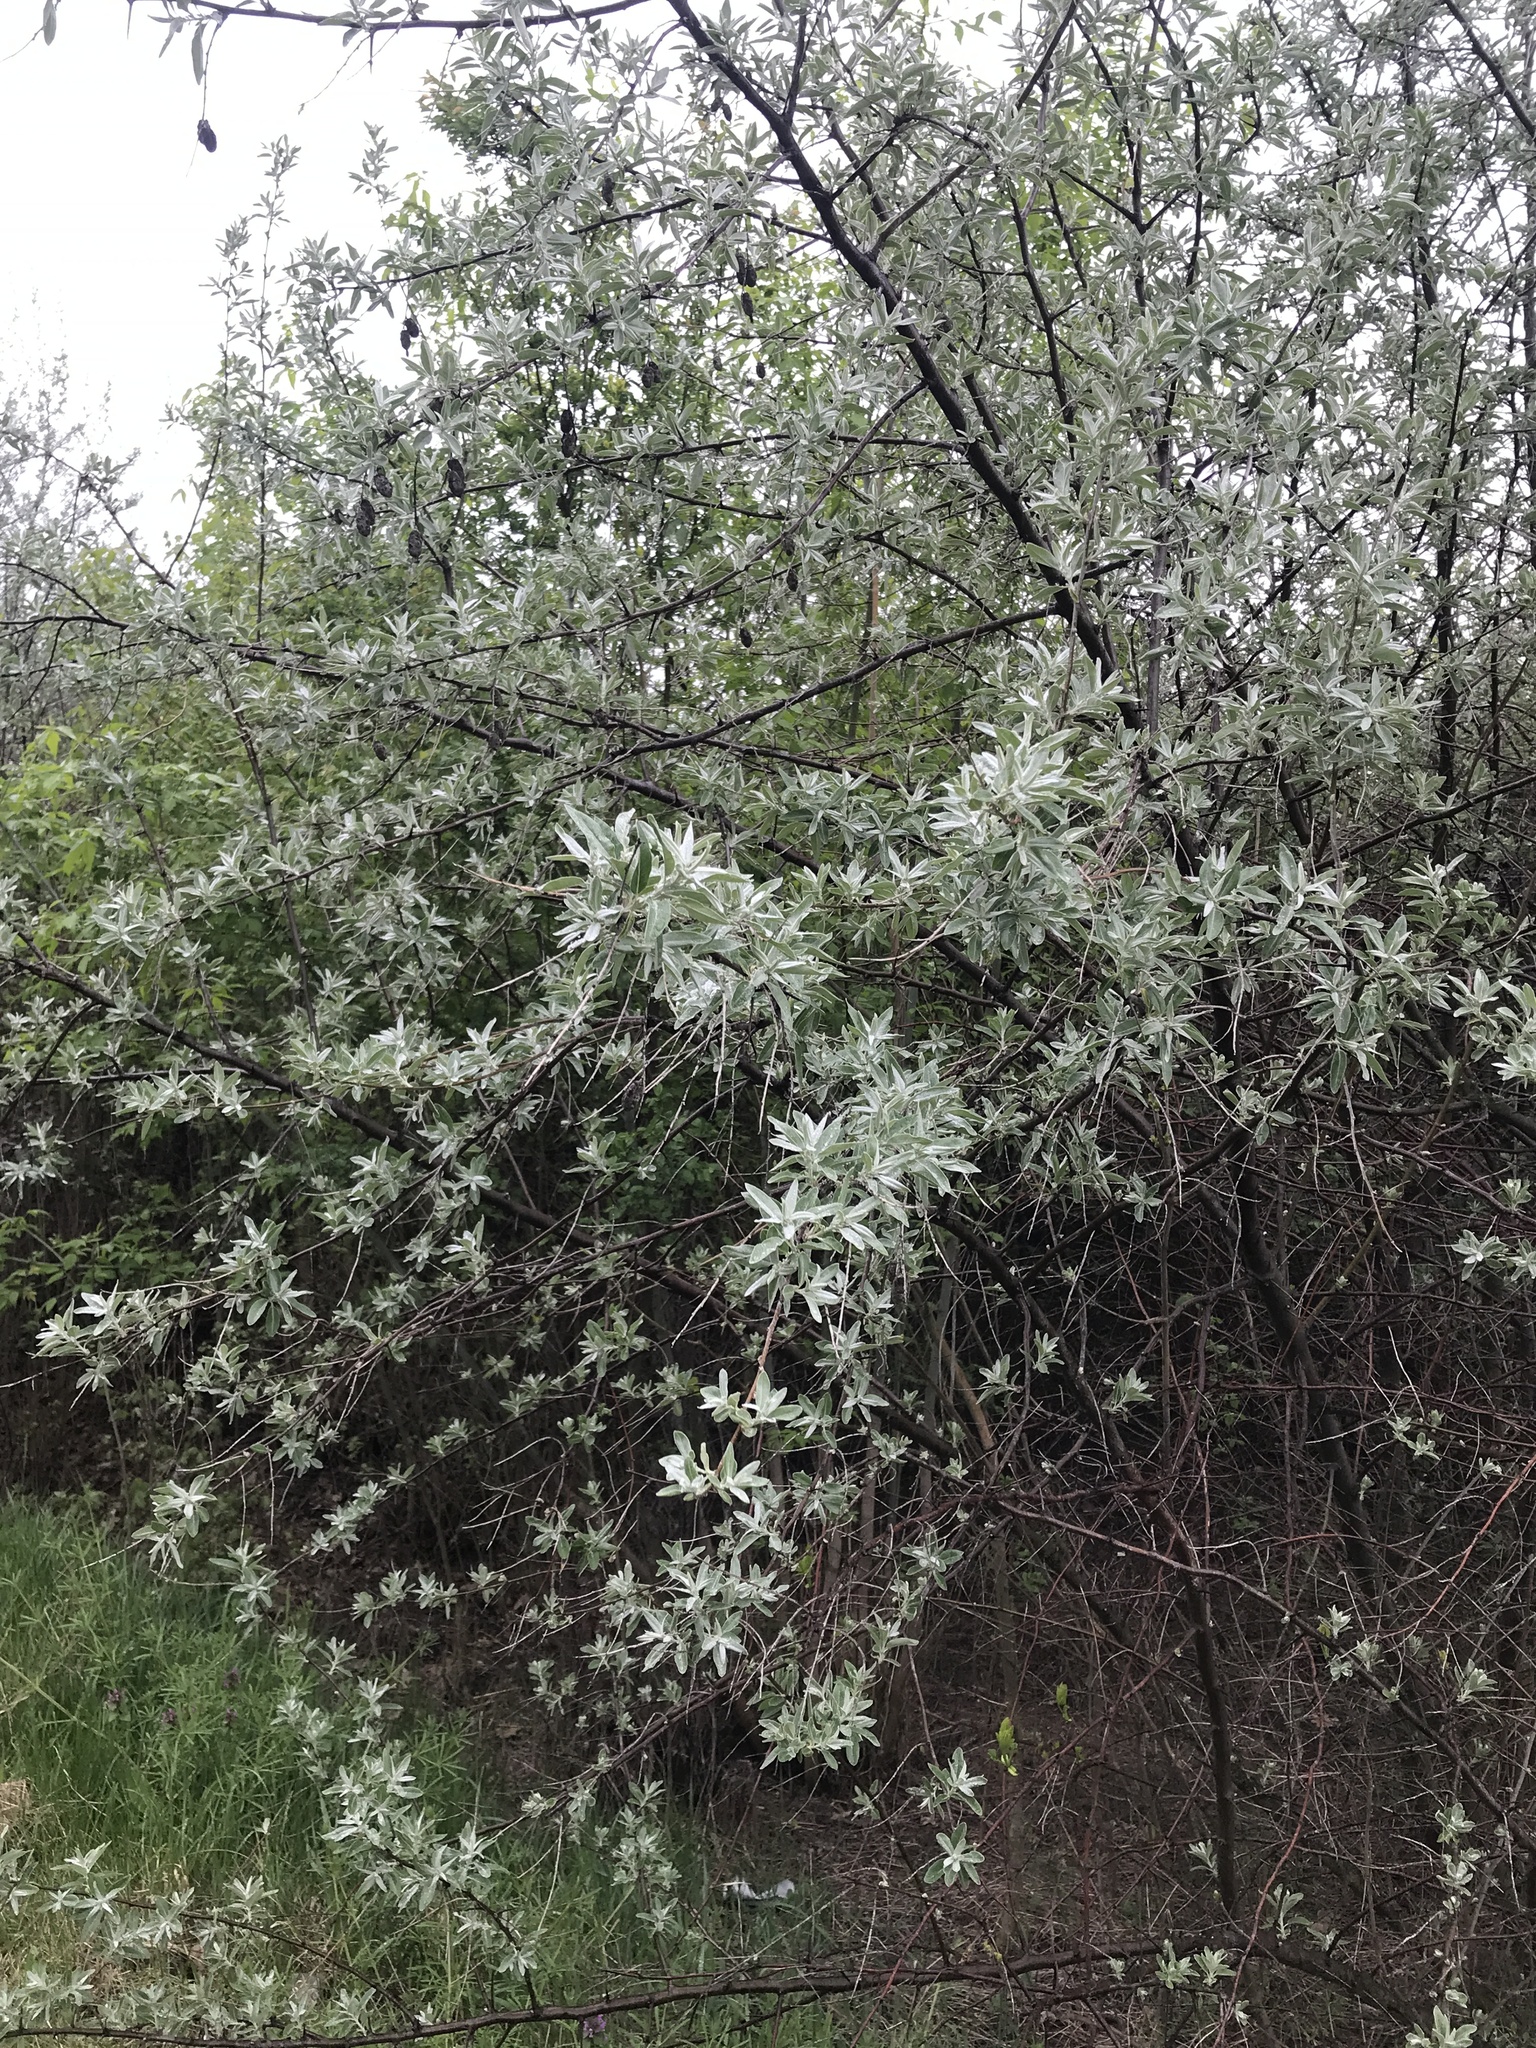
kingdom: Plantae
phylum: Tracheophyta
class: Magnoliopsida
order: Rosales
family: Elaeagnaceae
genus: Elaeagnus
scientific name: Elaeagnus angustifolia
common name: Russian olive
